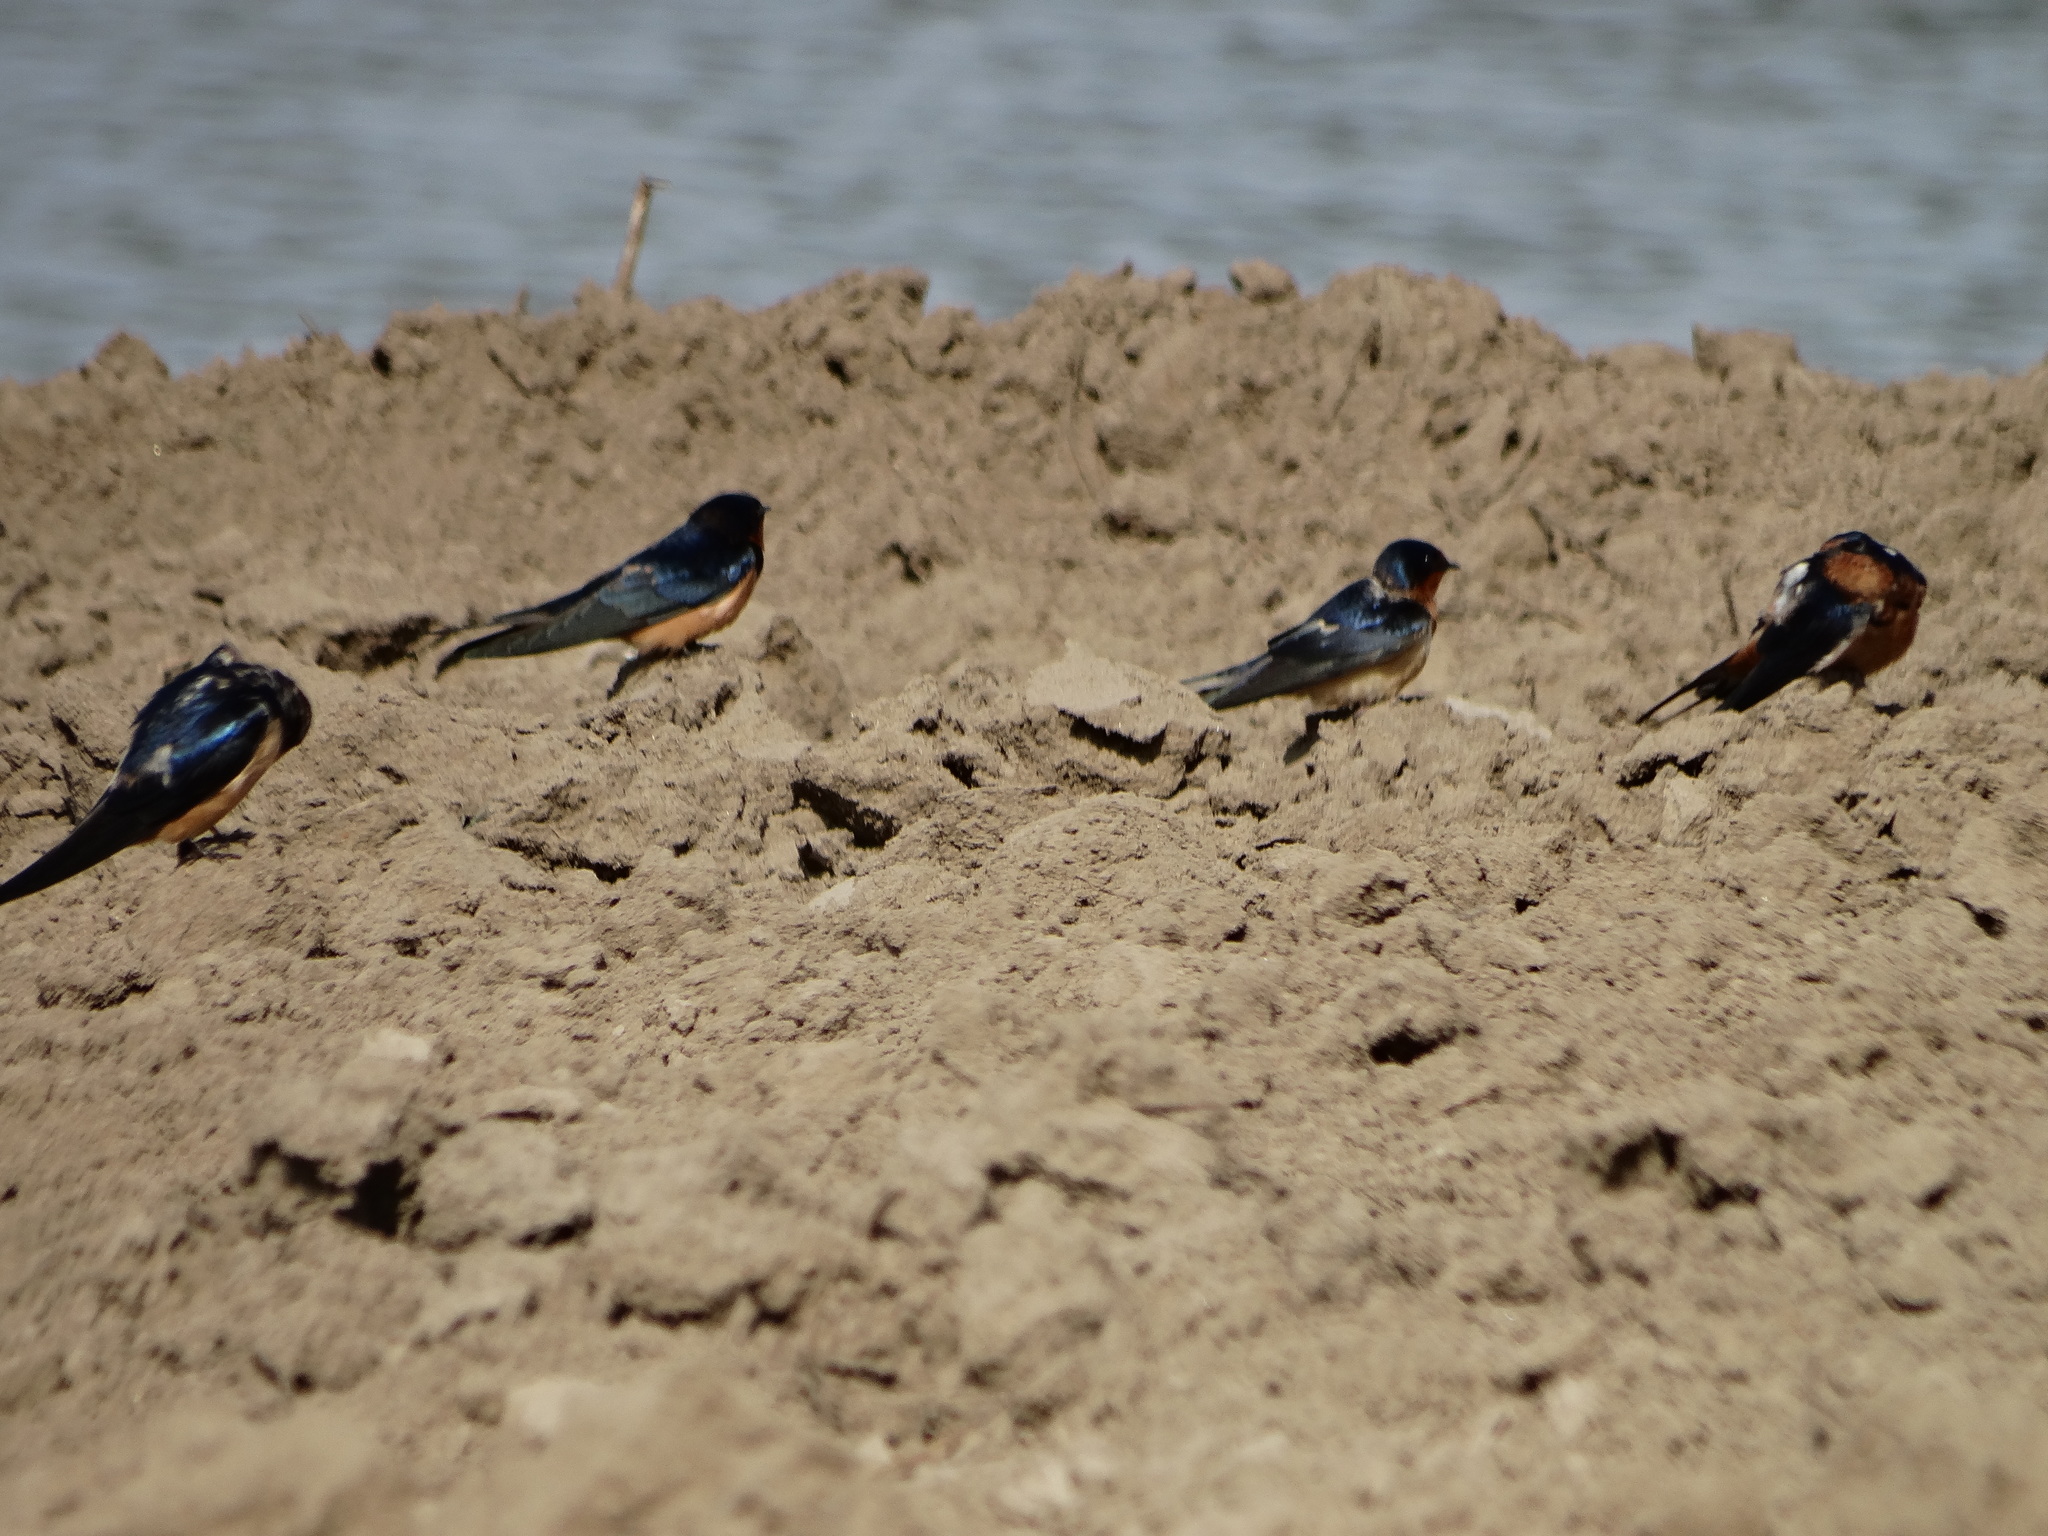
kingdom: Animalia
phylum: Chordata
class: Aves
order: Passeriformes
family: Hirundinidae
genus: Hirundo
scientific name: Hirundo rustica
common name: Barn swallow
